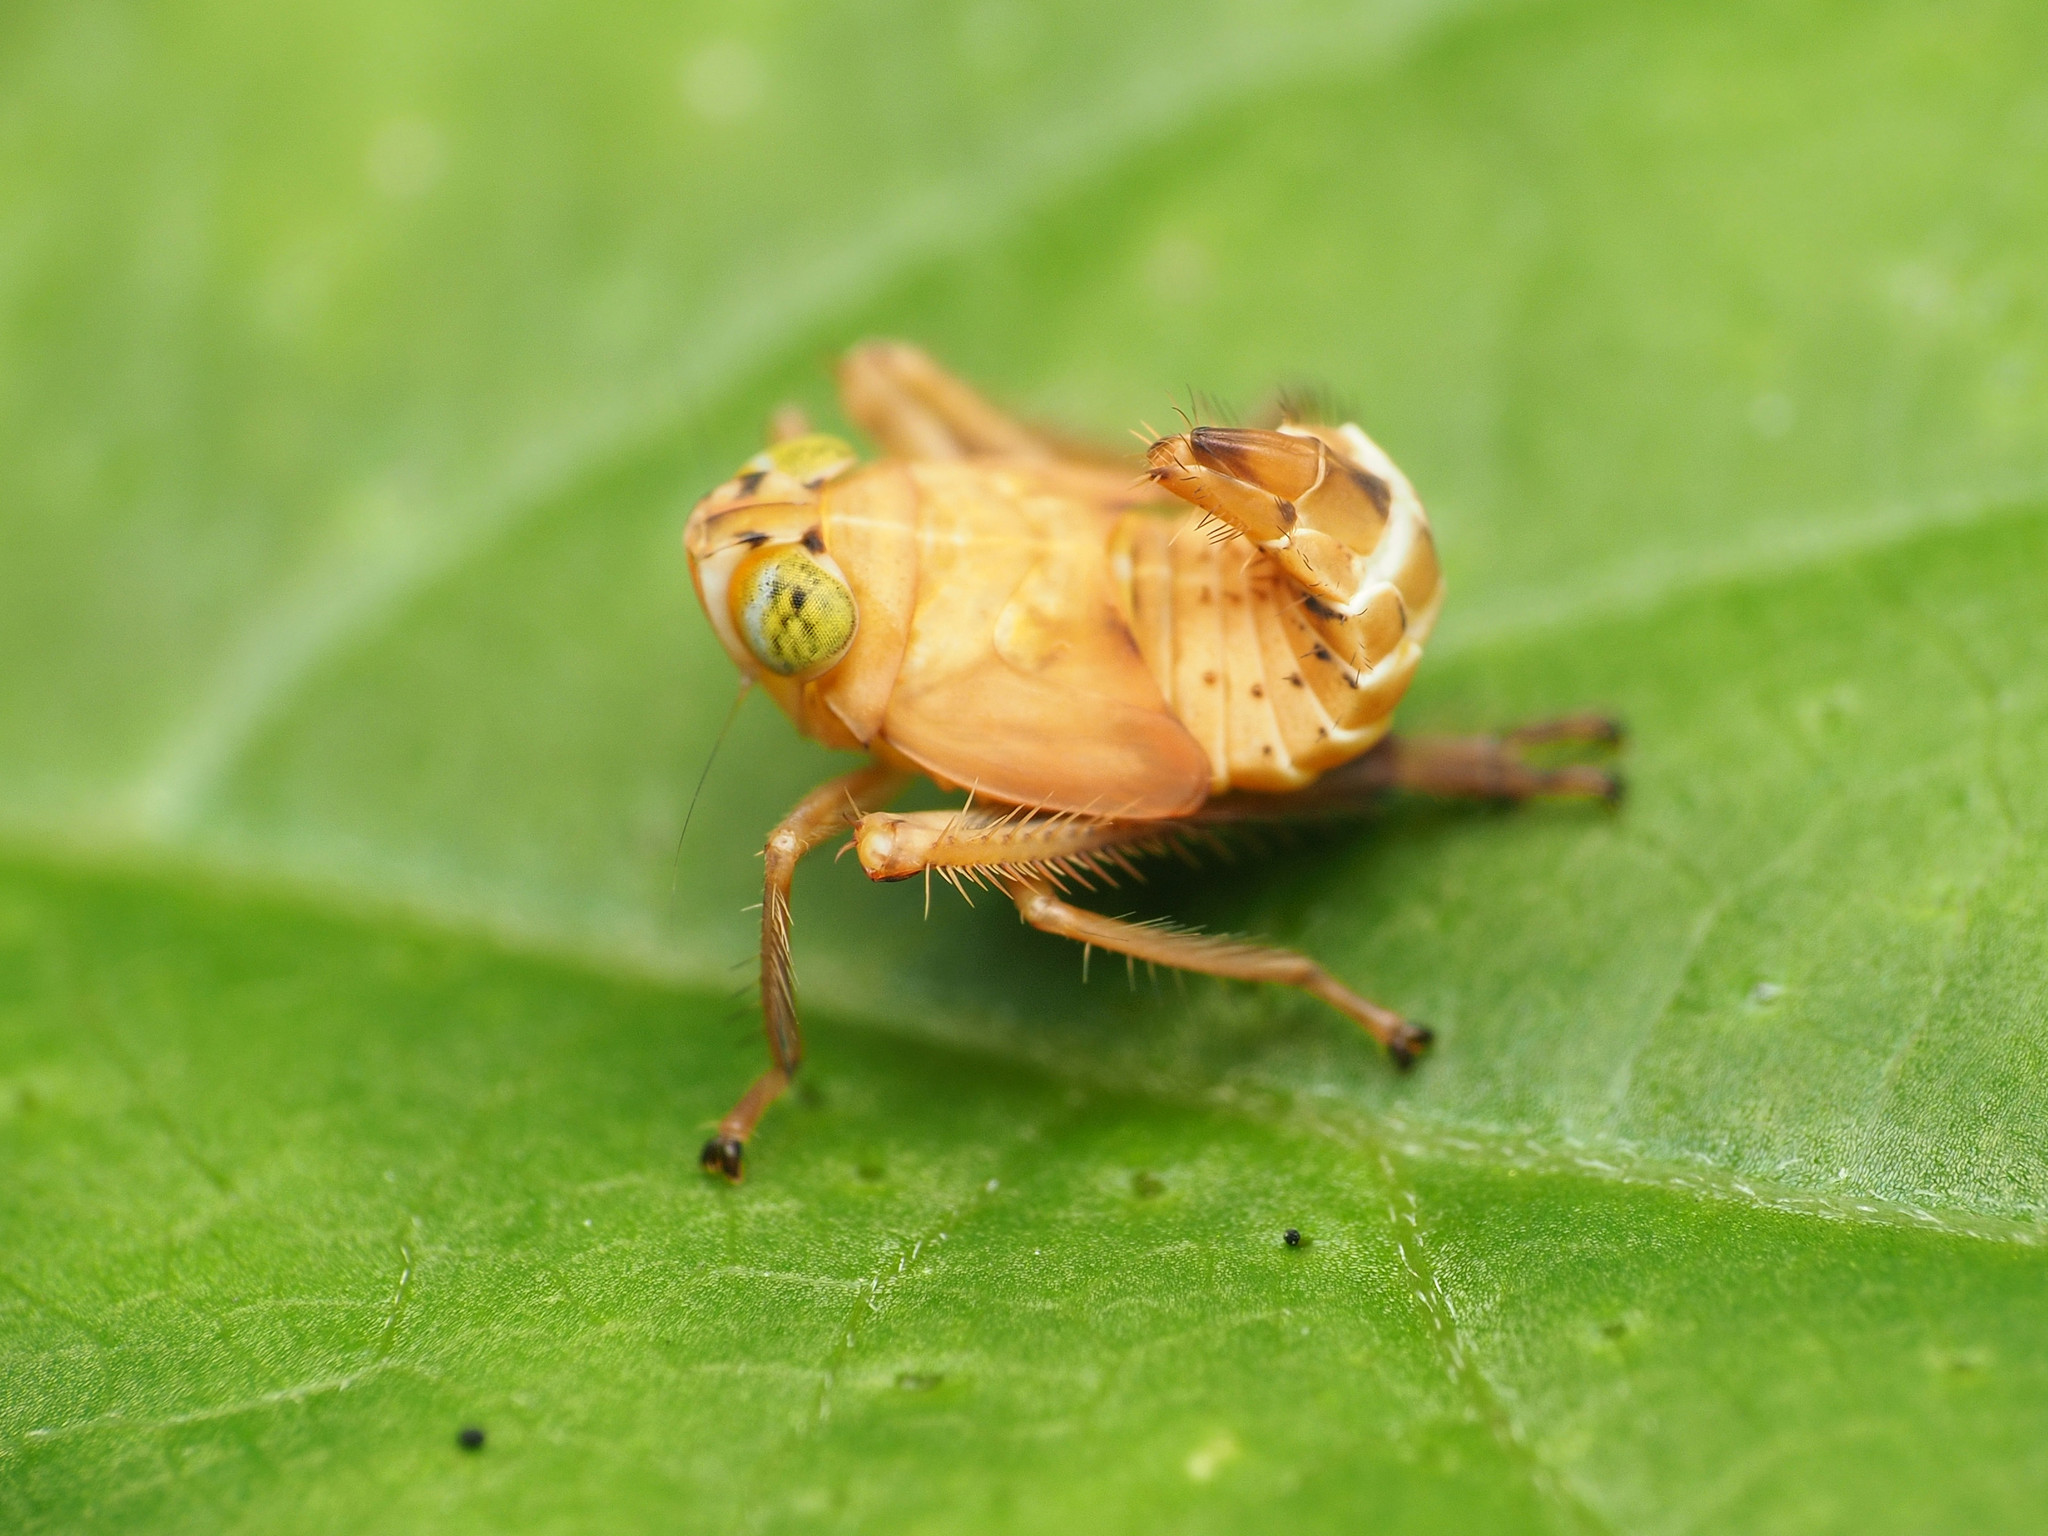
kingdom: Animalia
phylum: Arthropoda
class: Insecta
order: Hemiptera
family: Cicadellidae
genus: Jikradia
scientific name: Jikradia olitoria
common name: Coppery leafhopper
